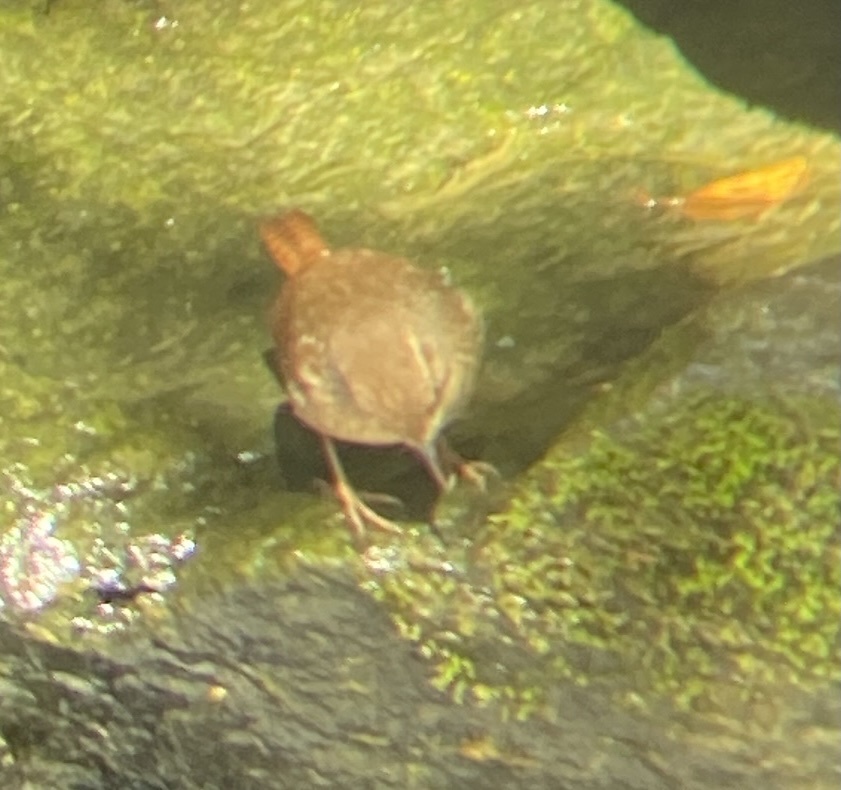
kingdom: Animalia
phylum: Chordata
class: Aves
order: Passeriformes
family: Troglodytidae
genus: Troglodytes
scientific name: Troglodytes hiemalis
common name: Winter wren
